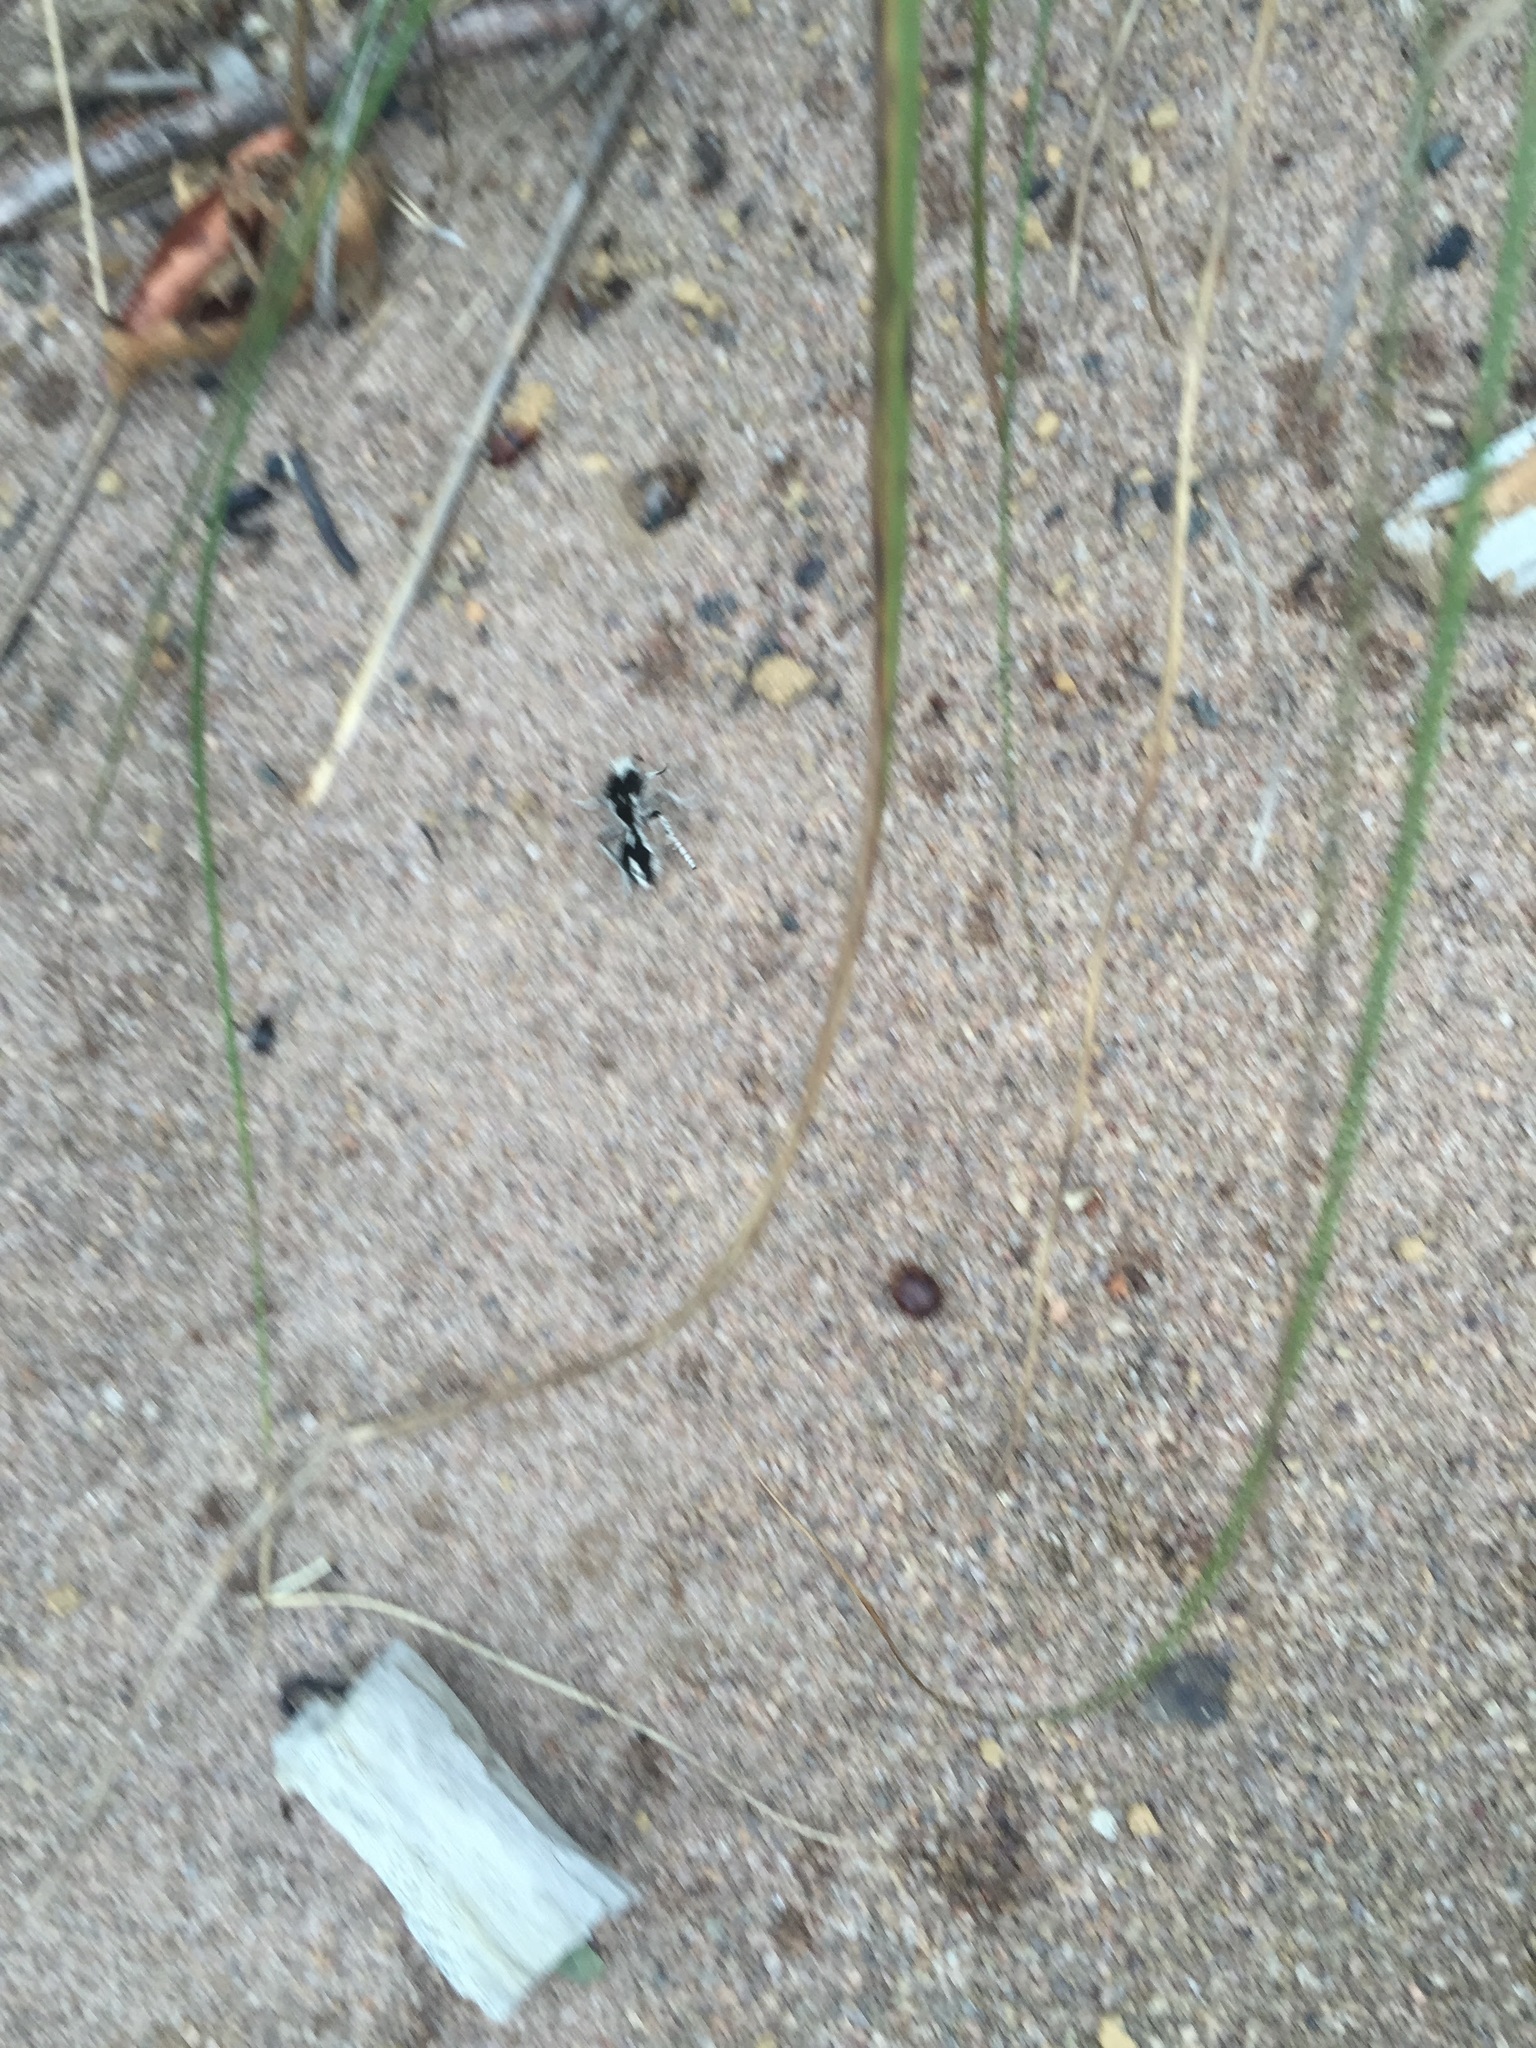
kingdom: Animalia
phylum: Arthropoda
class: Insecta
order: Hymenoptera
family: Mutillidae
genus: Leucospilomutilla
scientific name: Leucospilomutilla cerbera
